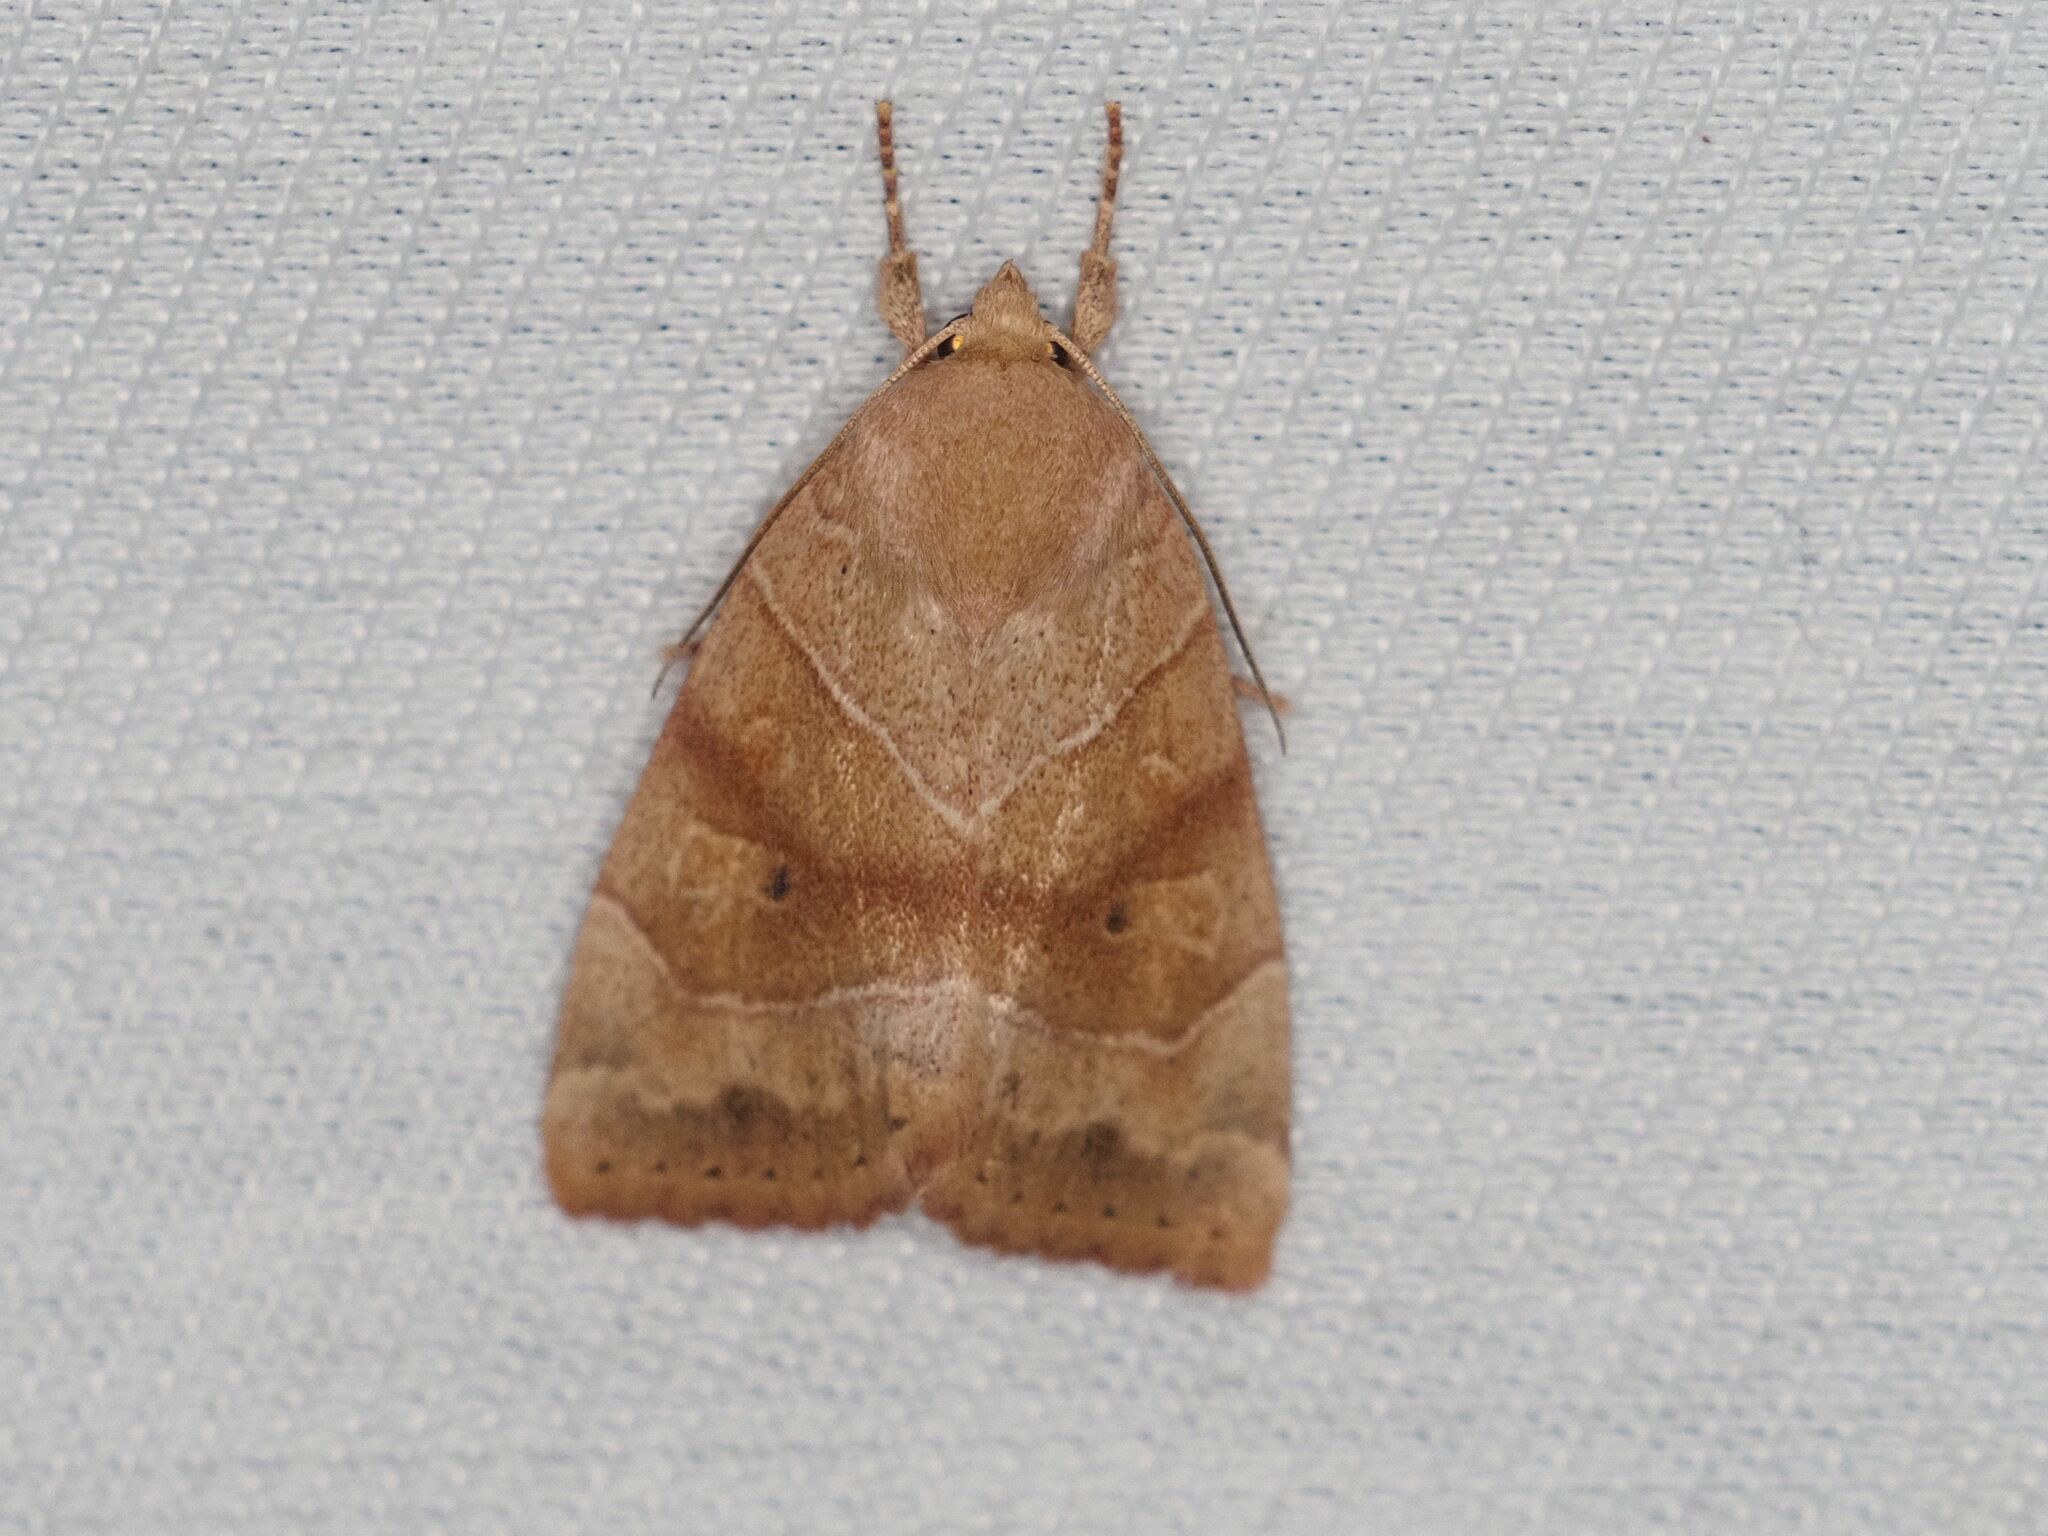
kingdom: Animalia
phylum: Arthropoda
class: Insecta
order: Lepidoptera
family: Noctuidae
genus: Cosmia
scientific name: Cosmia trapezina
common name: Dun-bar
